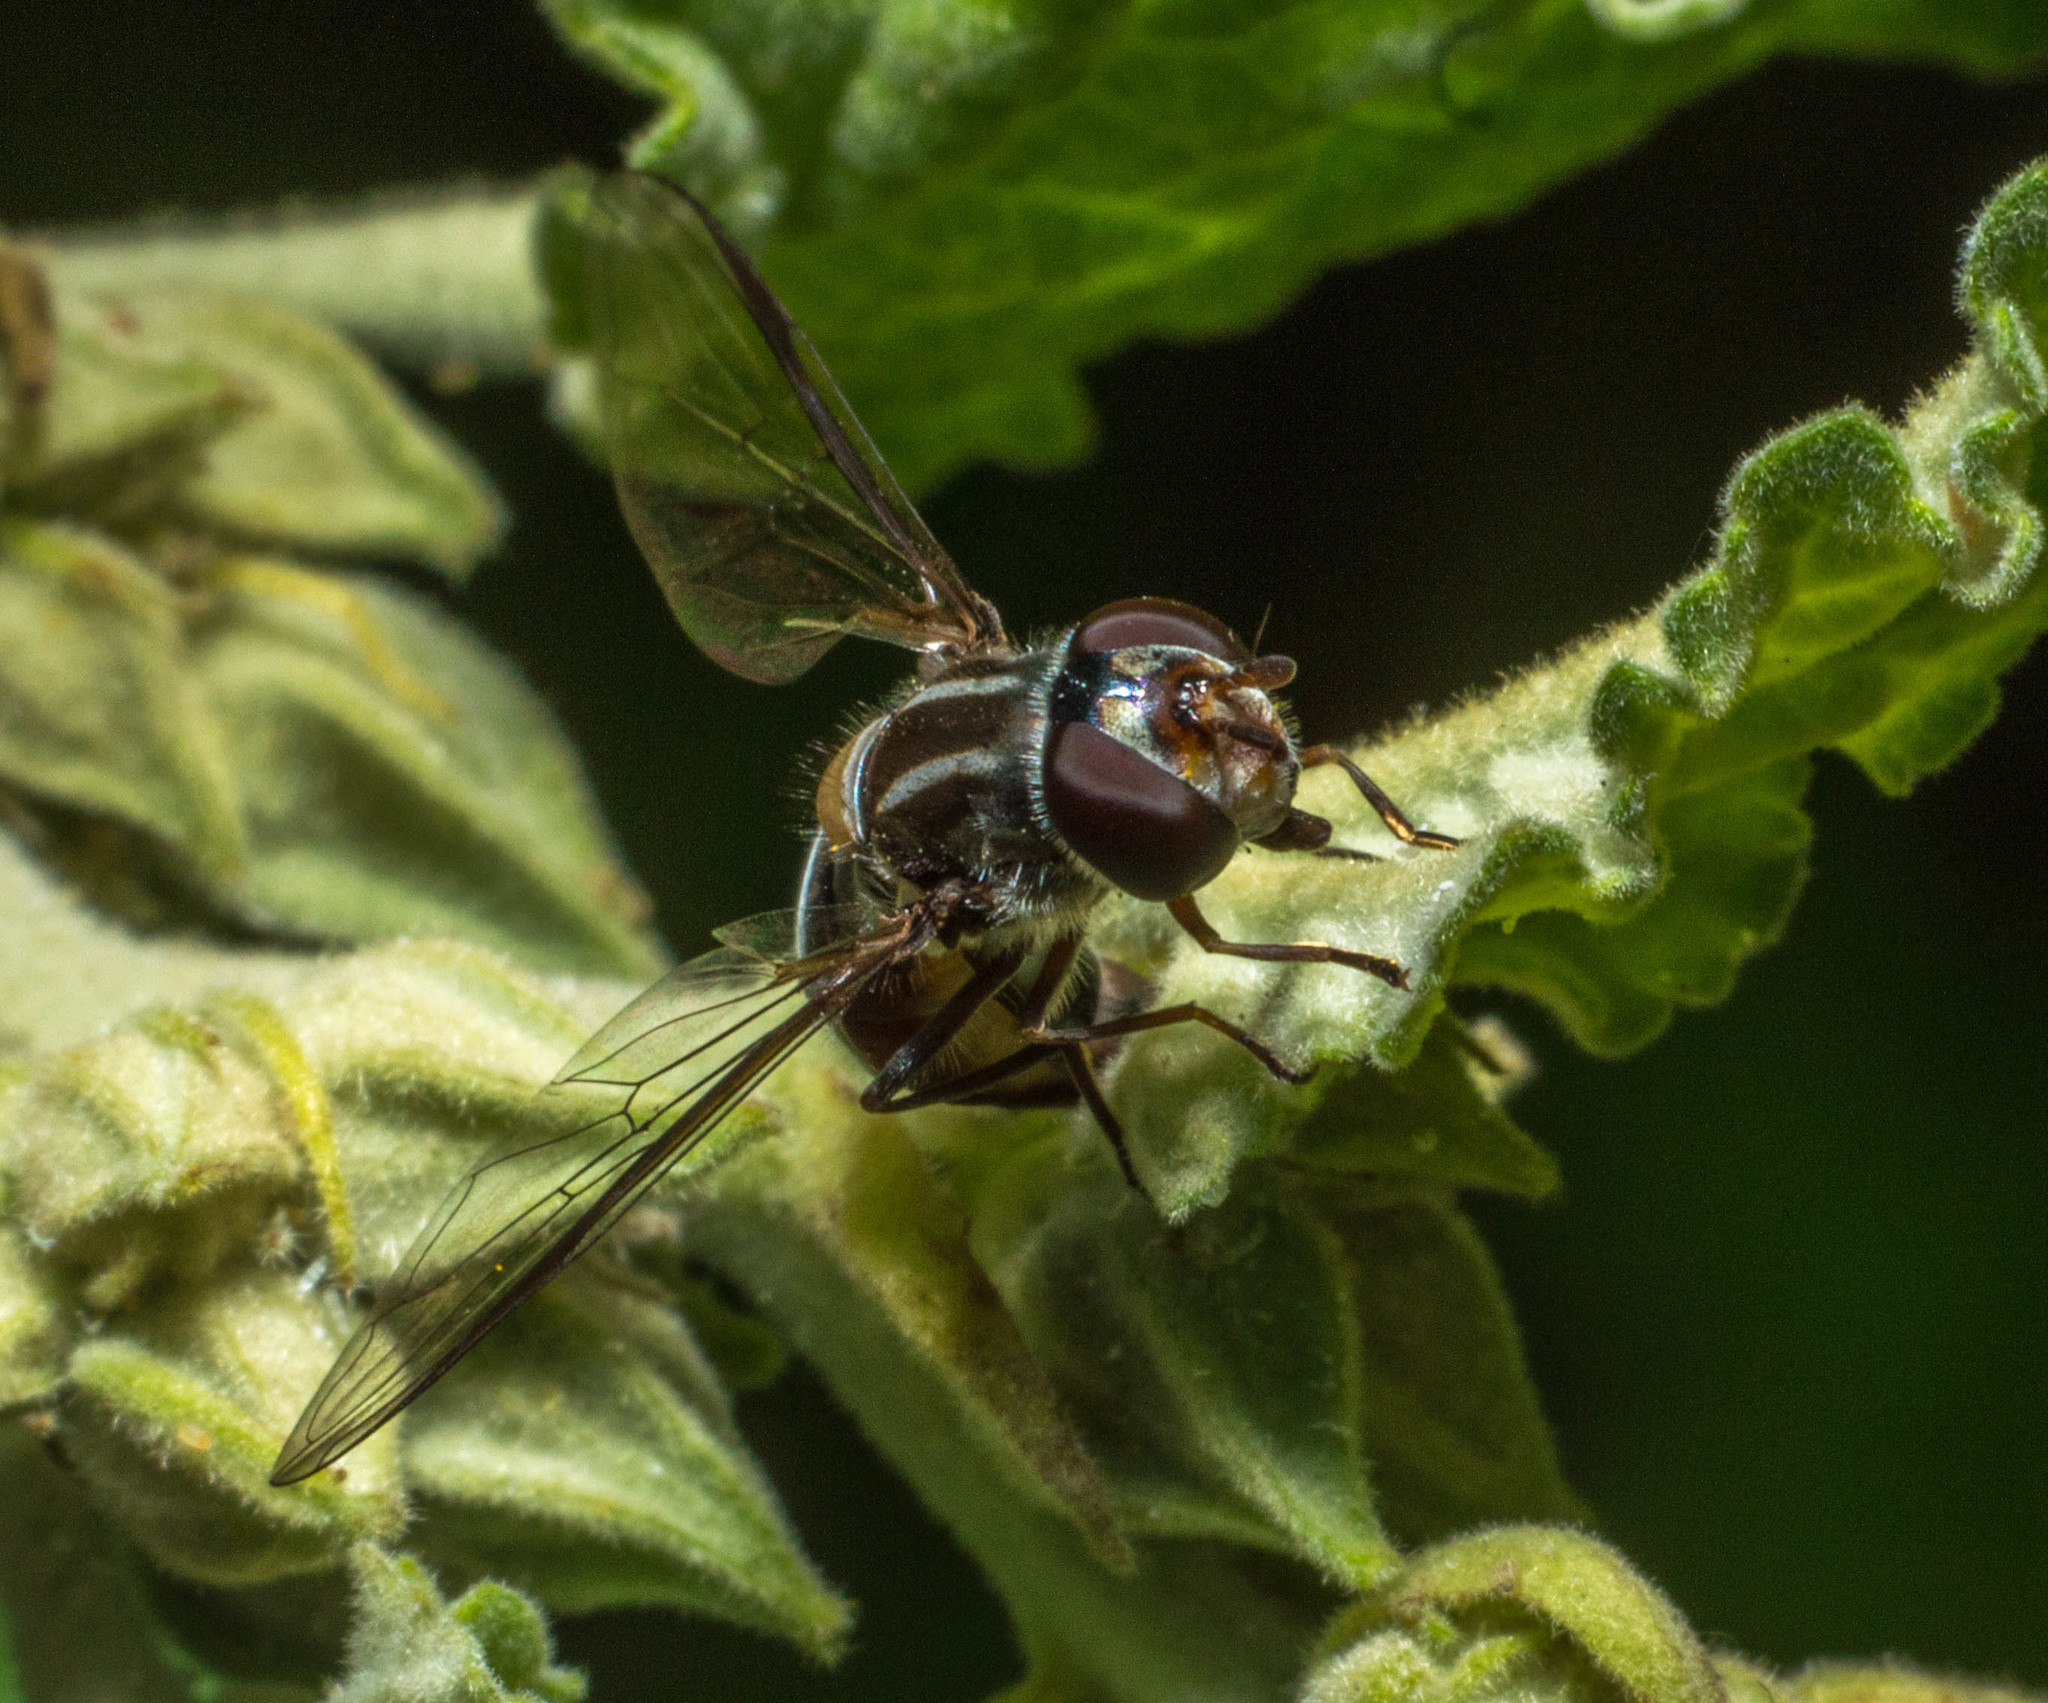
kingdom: Animalia
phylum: Arthropoda
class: Insecta
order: Diptera
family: Syrphidae
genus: Pseudoscaeva
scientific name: Pseudoscaeva meridionalis
